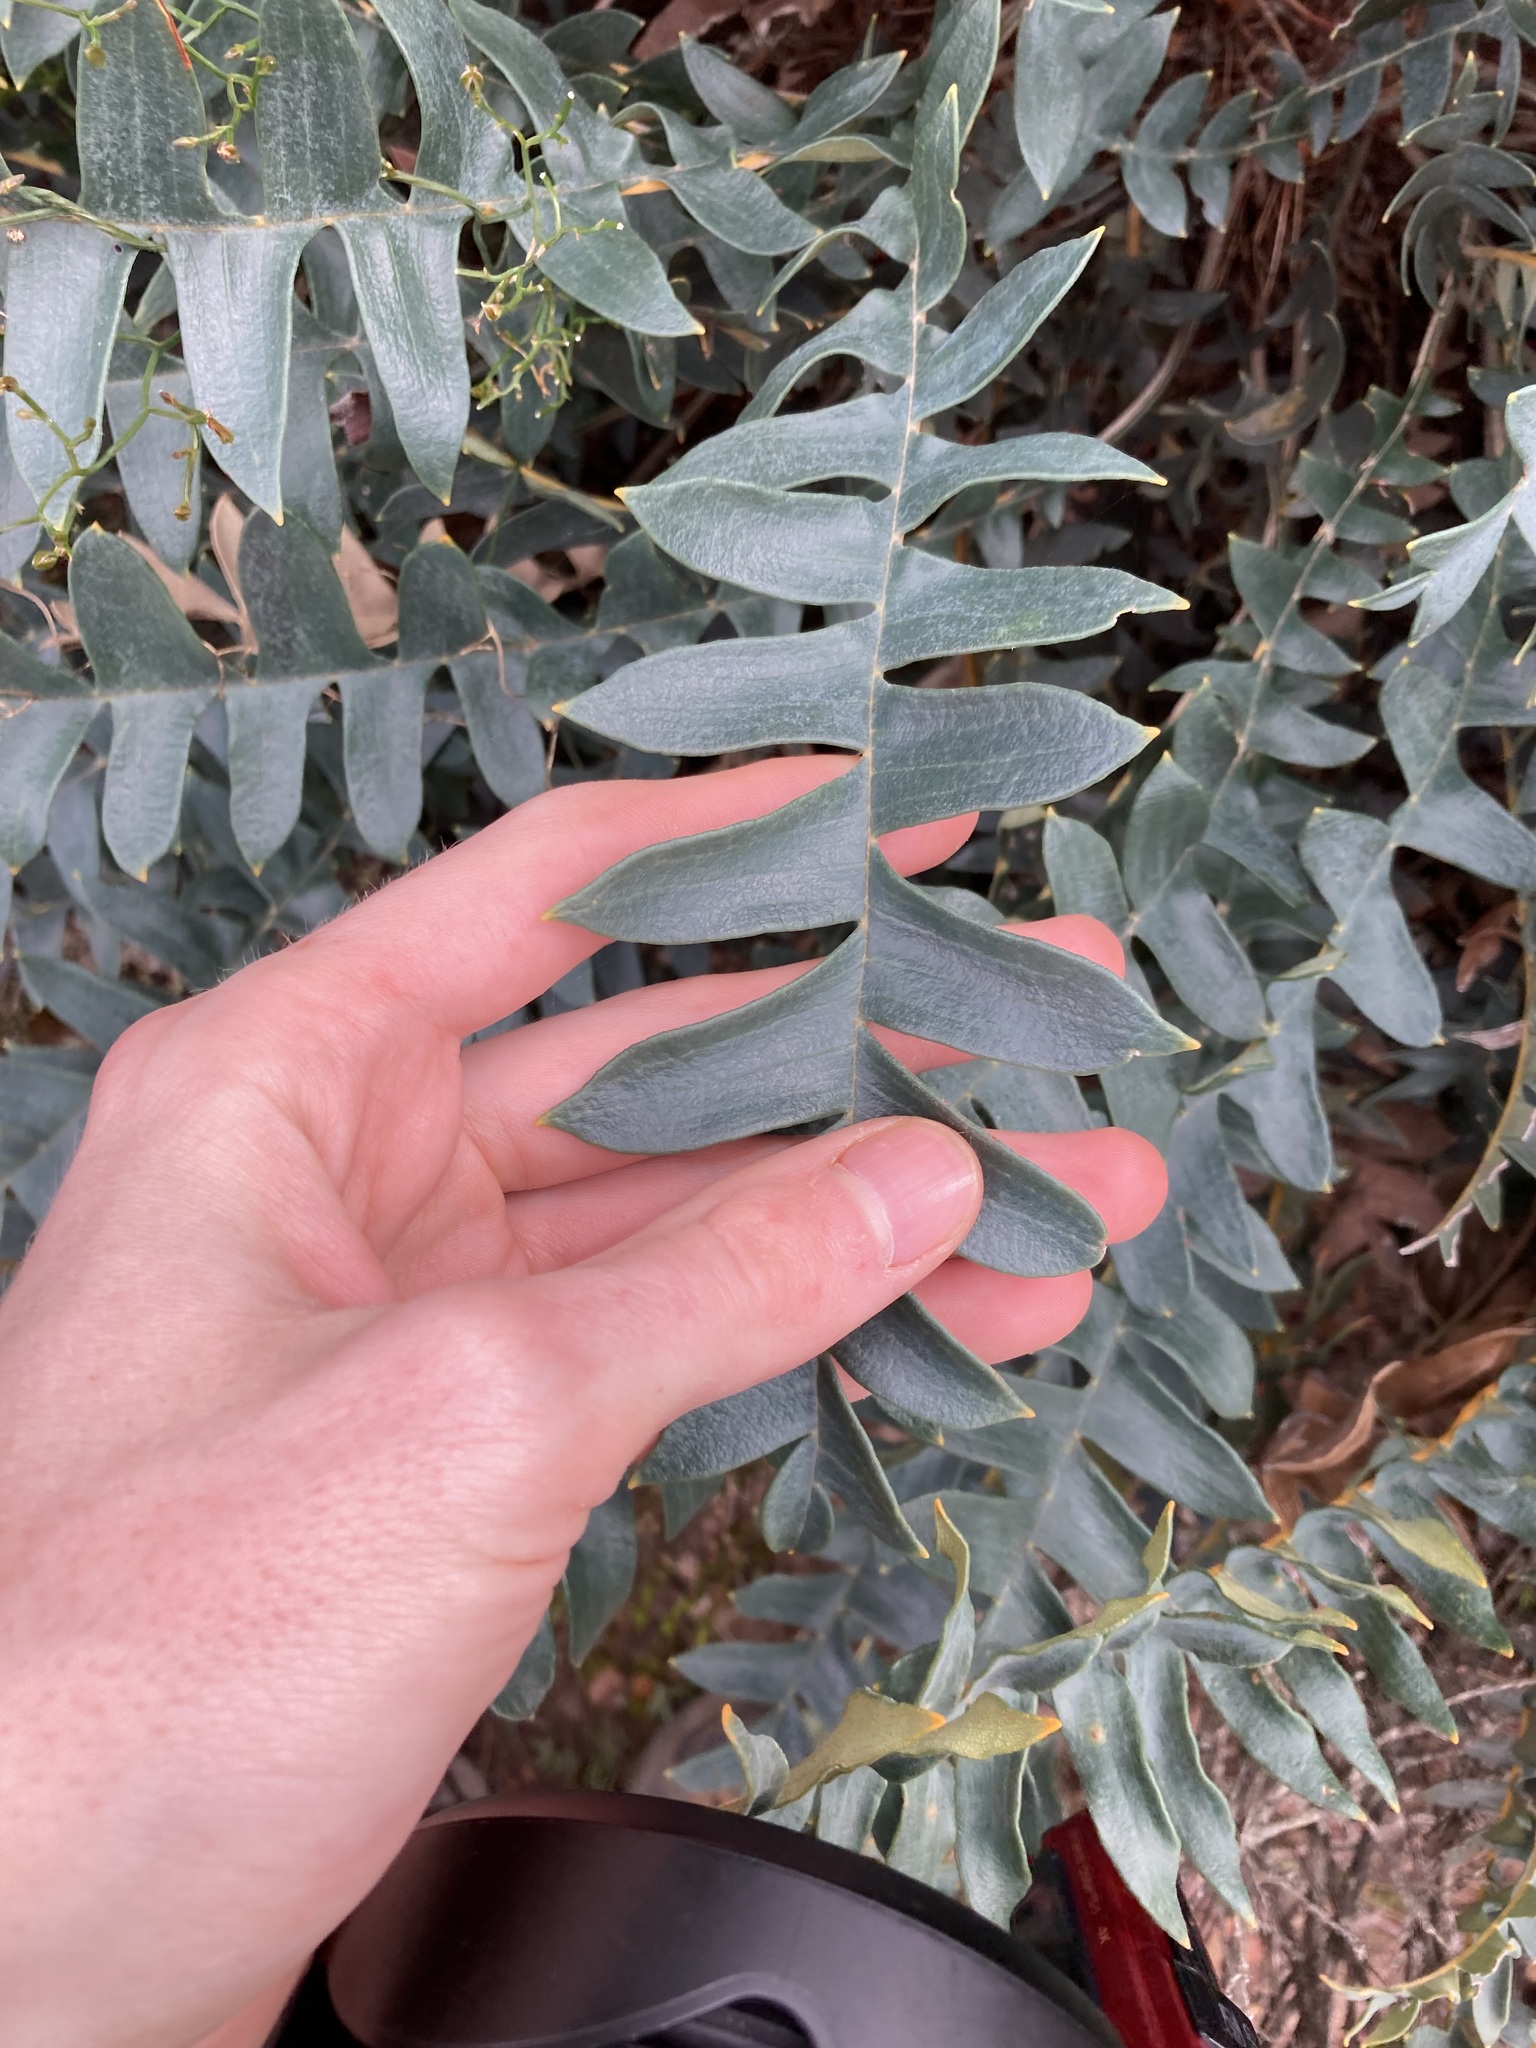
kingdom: Plantae
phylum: Tracheophyta
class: Magnoliopsida
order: Proteales
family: Proteaceae
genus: Banksia
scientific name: Banksia drummondii
